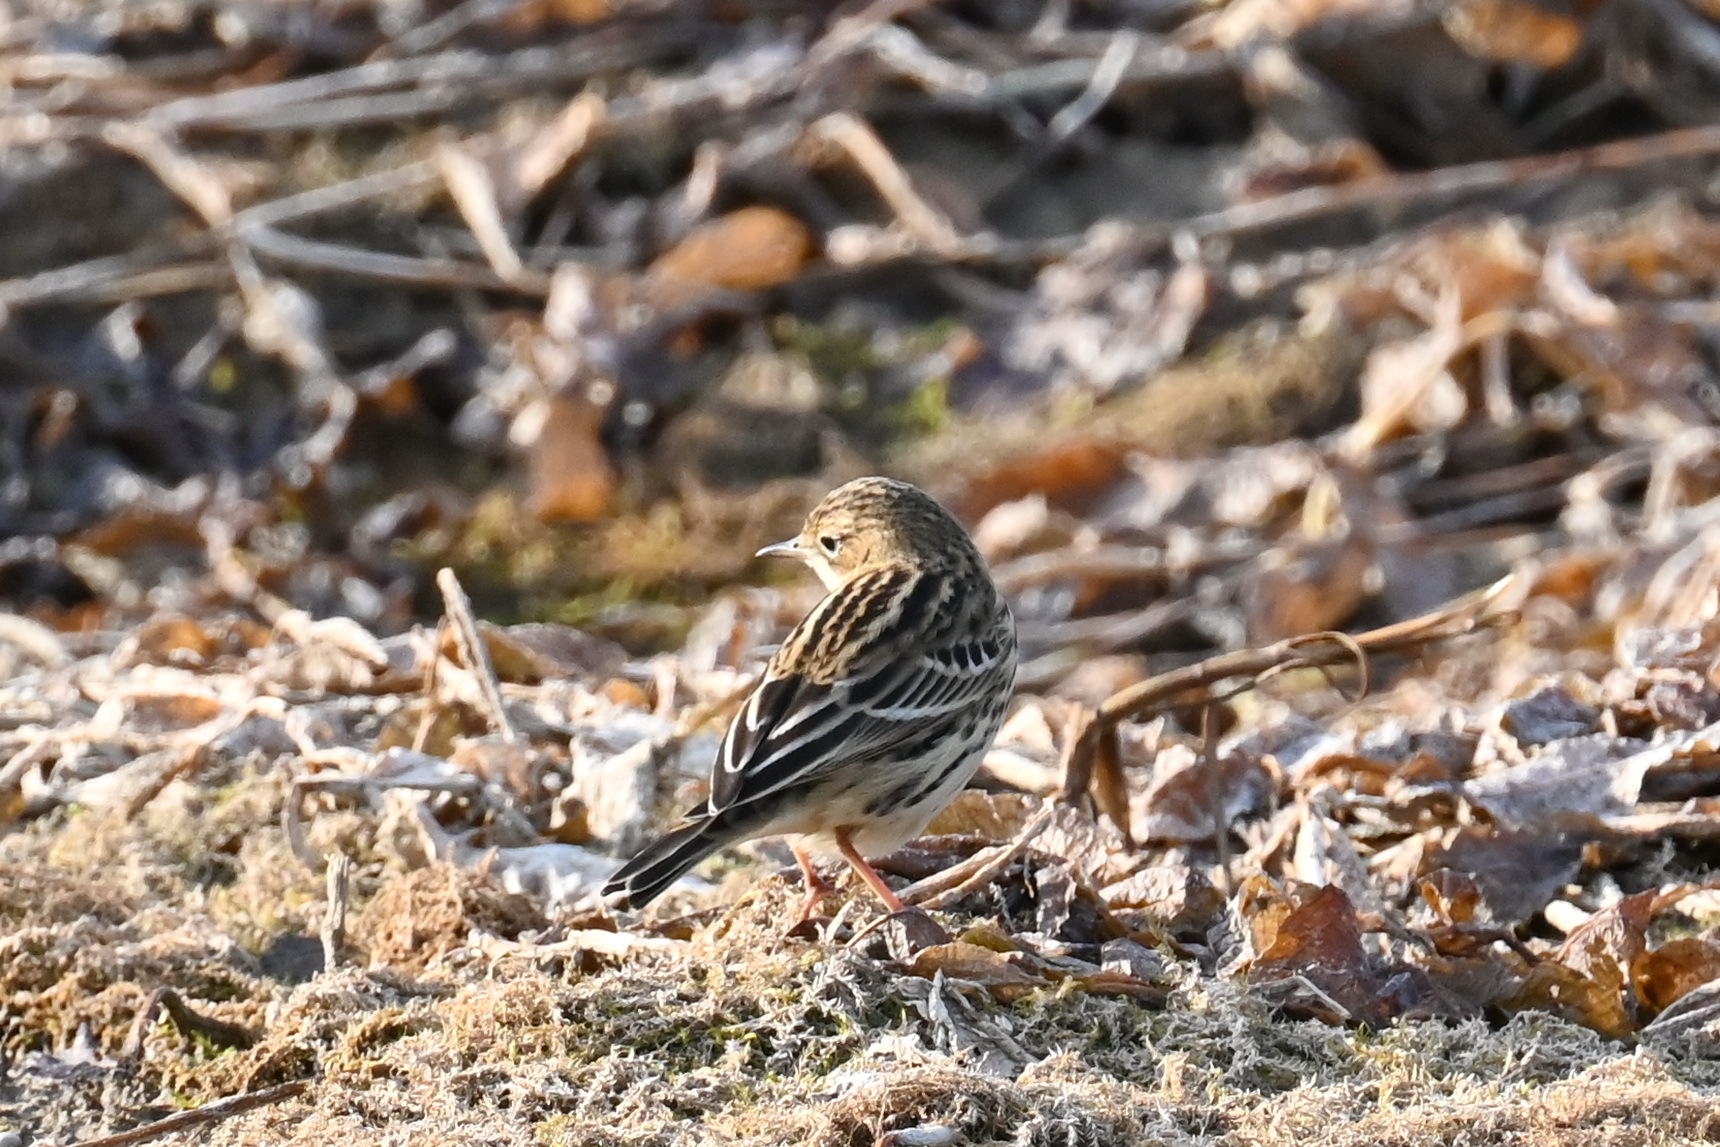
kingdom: Animalia
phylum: Chordata
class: Aves
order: Passeriformes
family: Motacillidae
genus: Anthus
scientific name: Anthus cervinus
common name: Red-throated pipit
